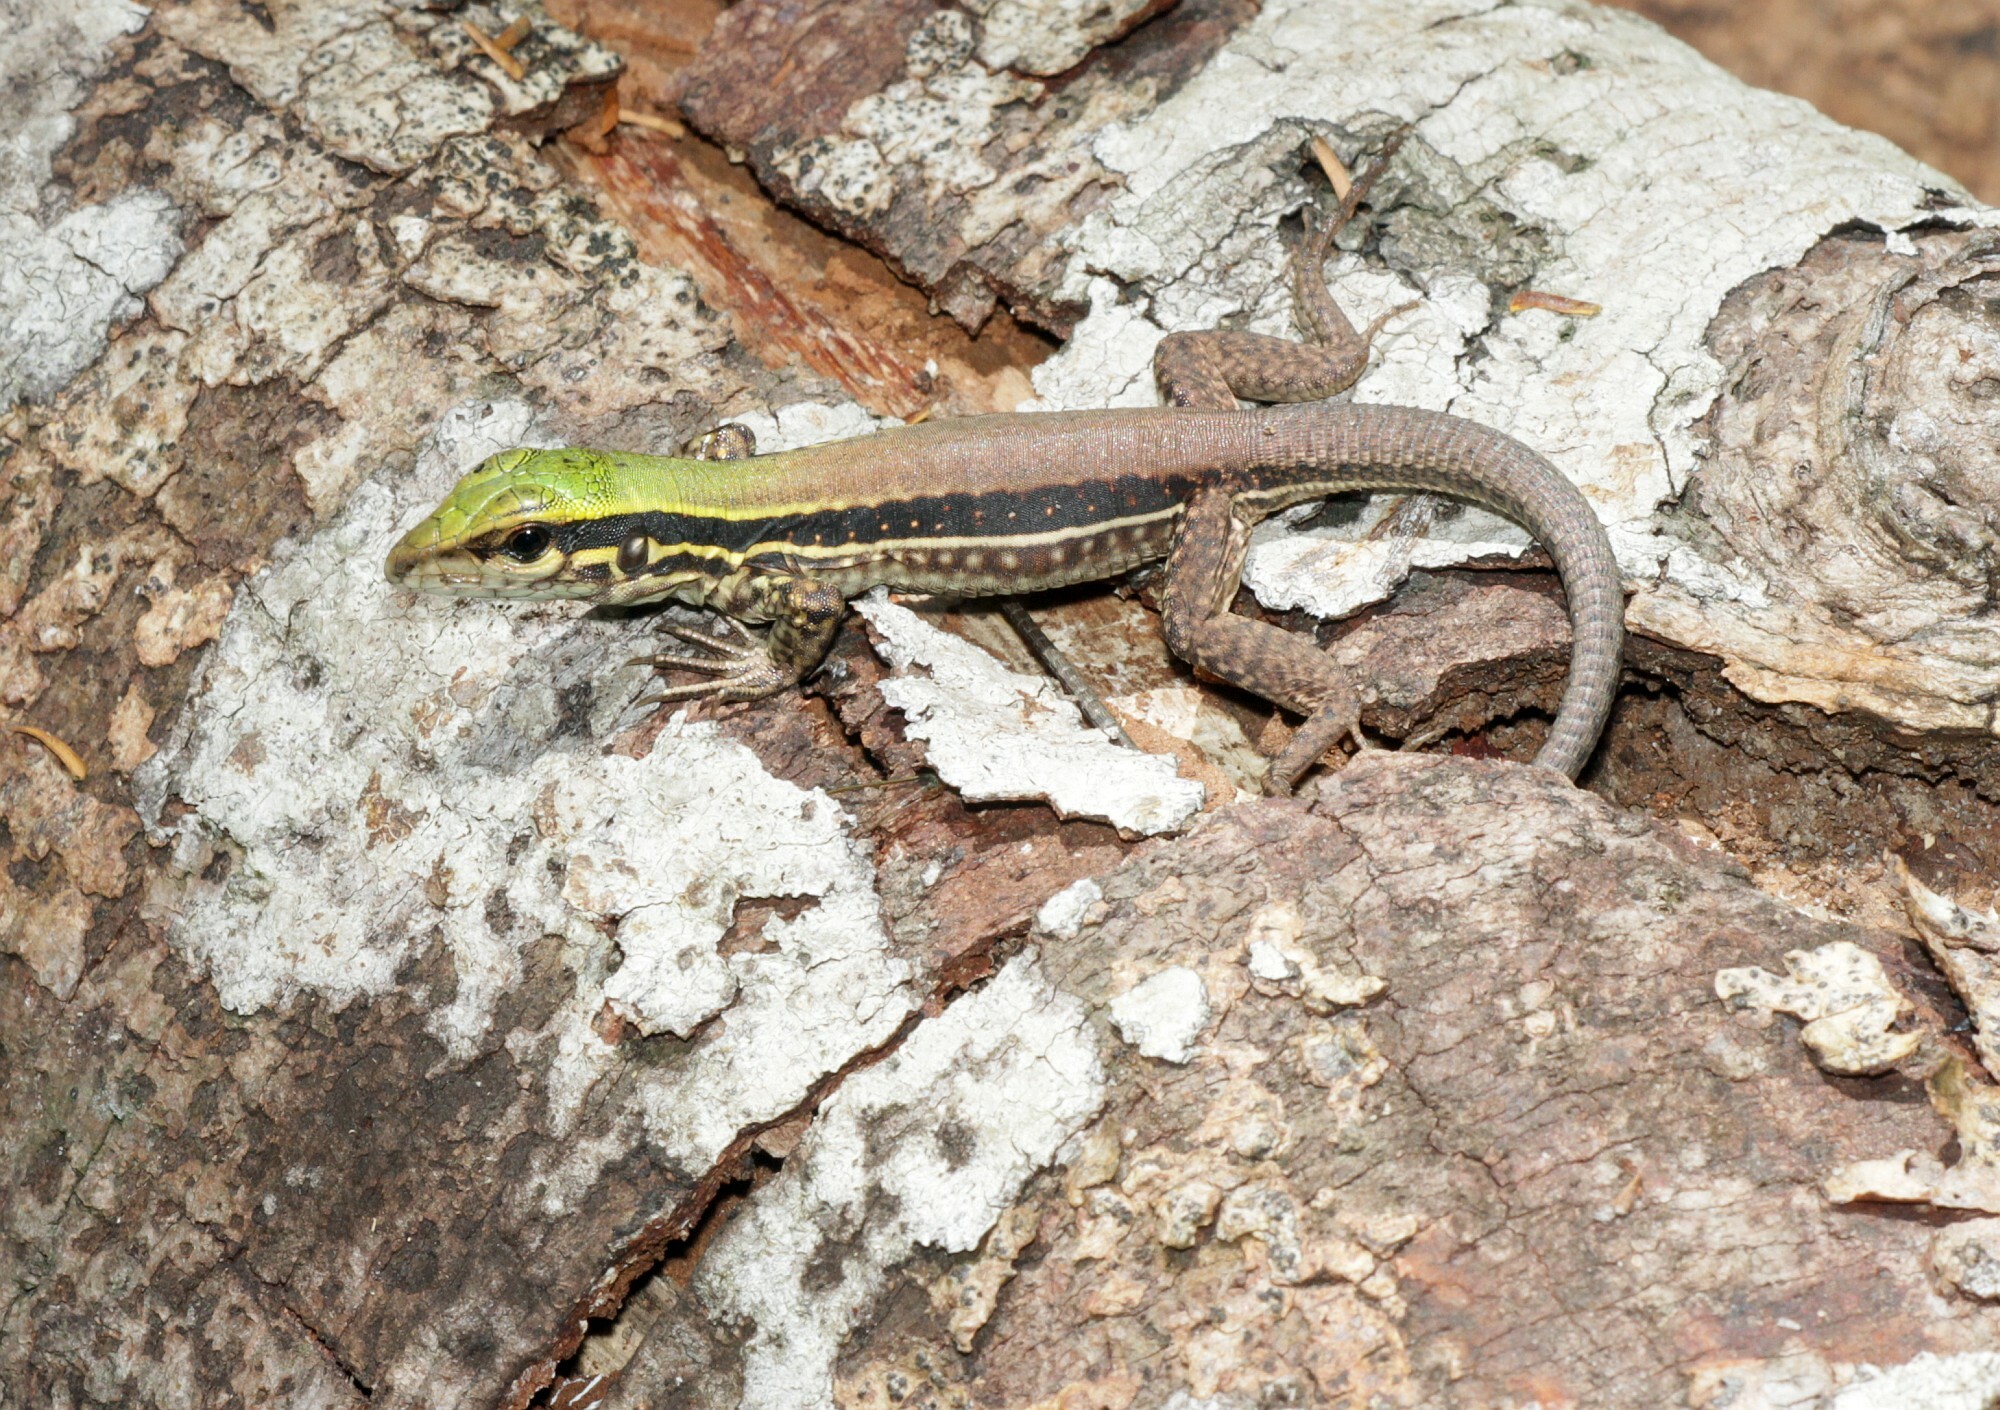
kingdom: Animalia
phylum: Chordata
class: Squamata
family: Teiidae
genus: Ameiva
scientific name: Ameiva ameiva
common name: Giant ameiva
